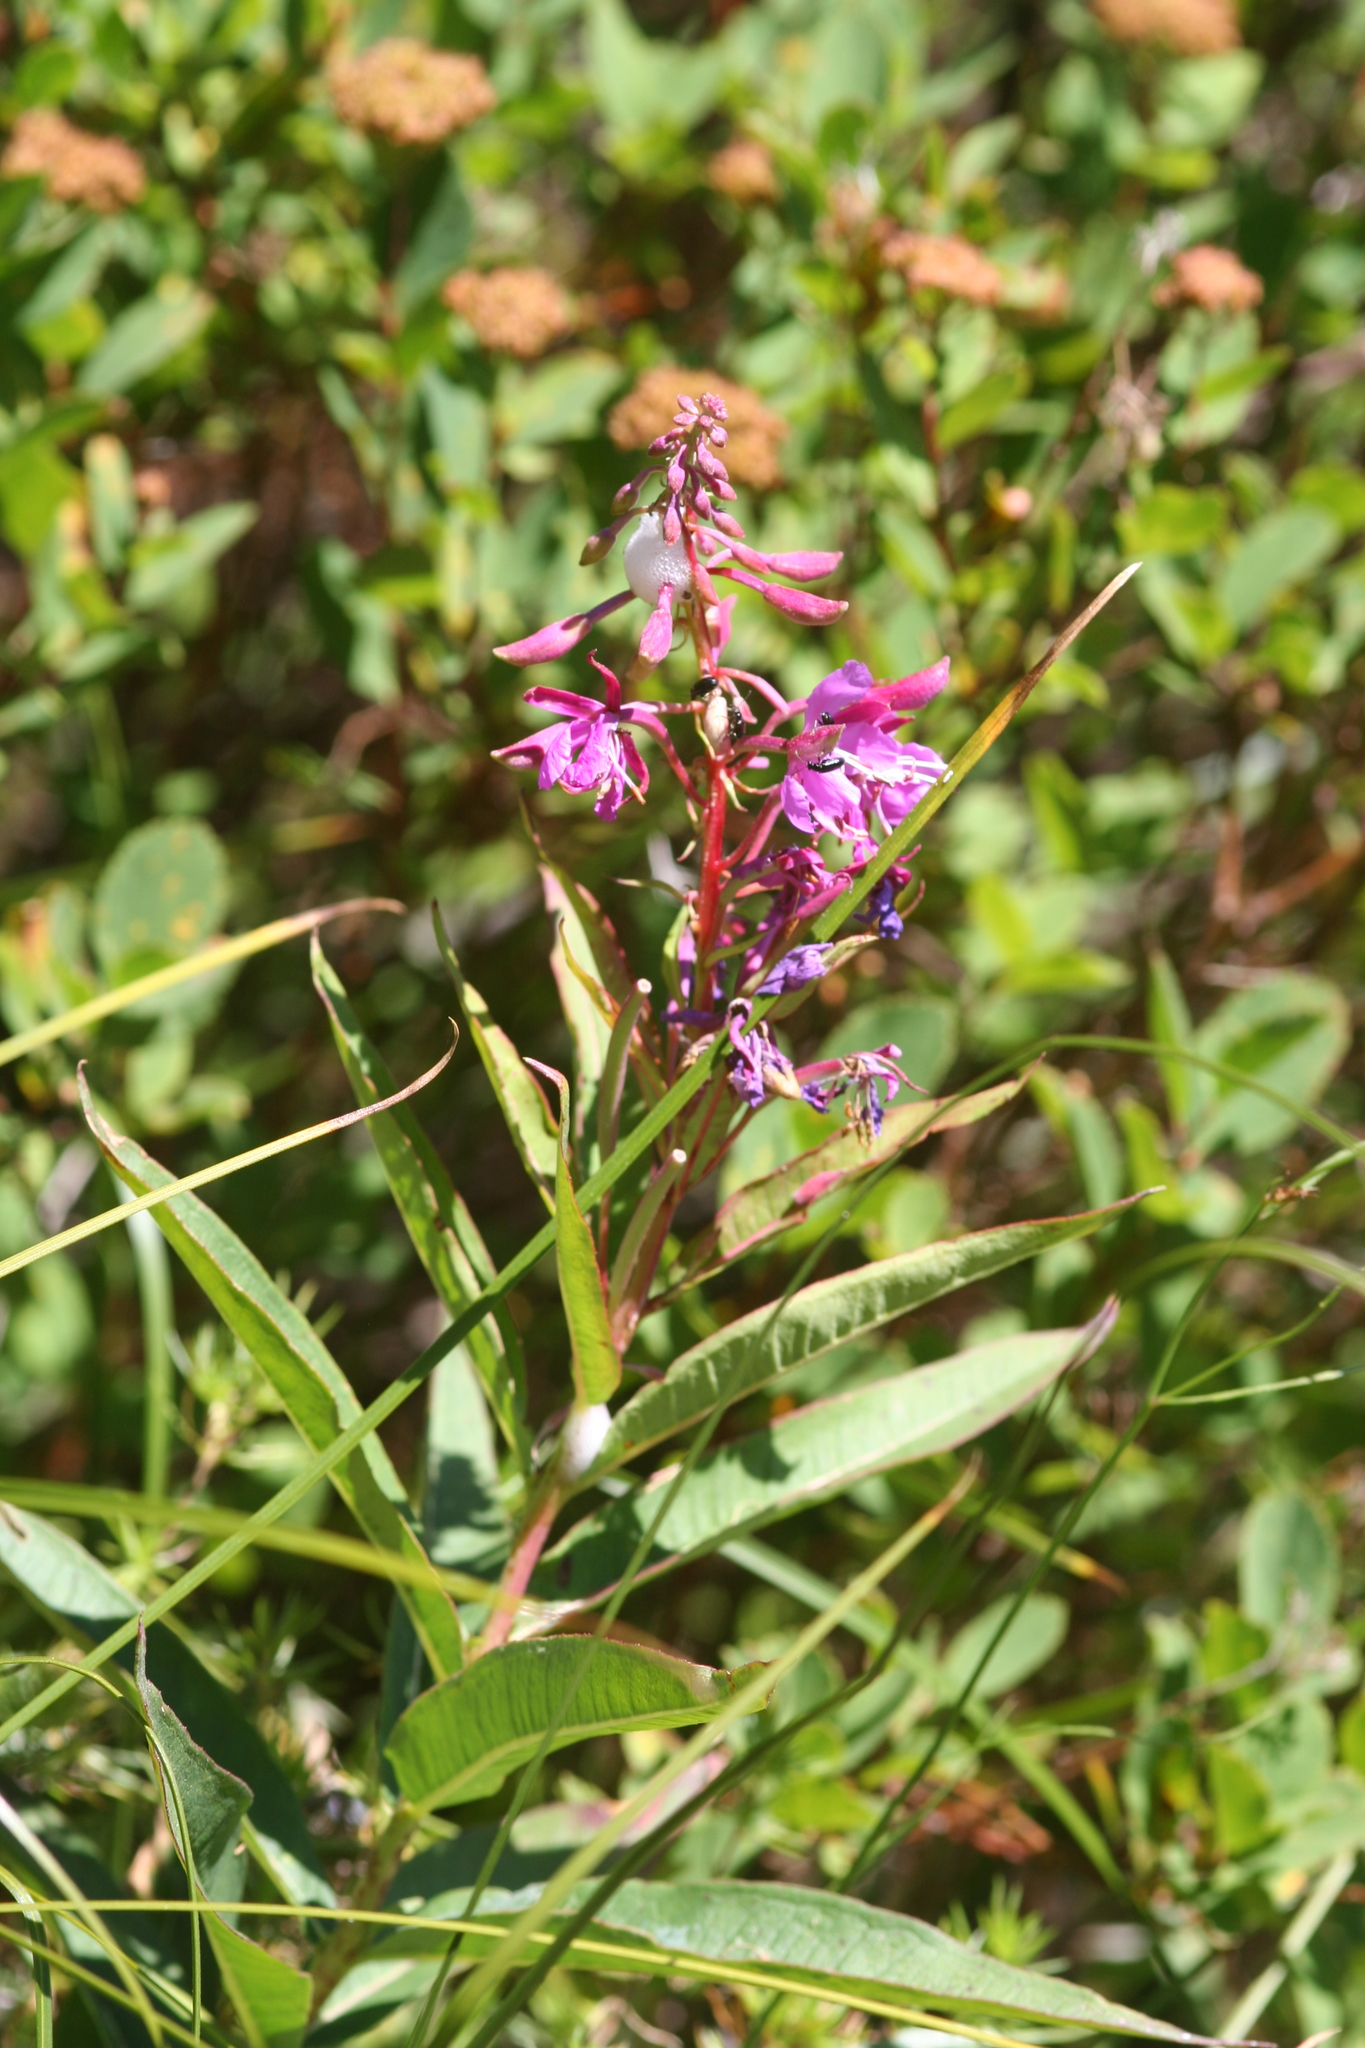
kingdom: Plantae
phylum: Tracheophyta
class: Magnoliopsida
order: Myrtales
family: Onagraceae
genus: Chamaenerion
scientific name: Chamaenerion angustifolium
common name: Fireweed
